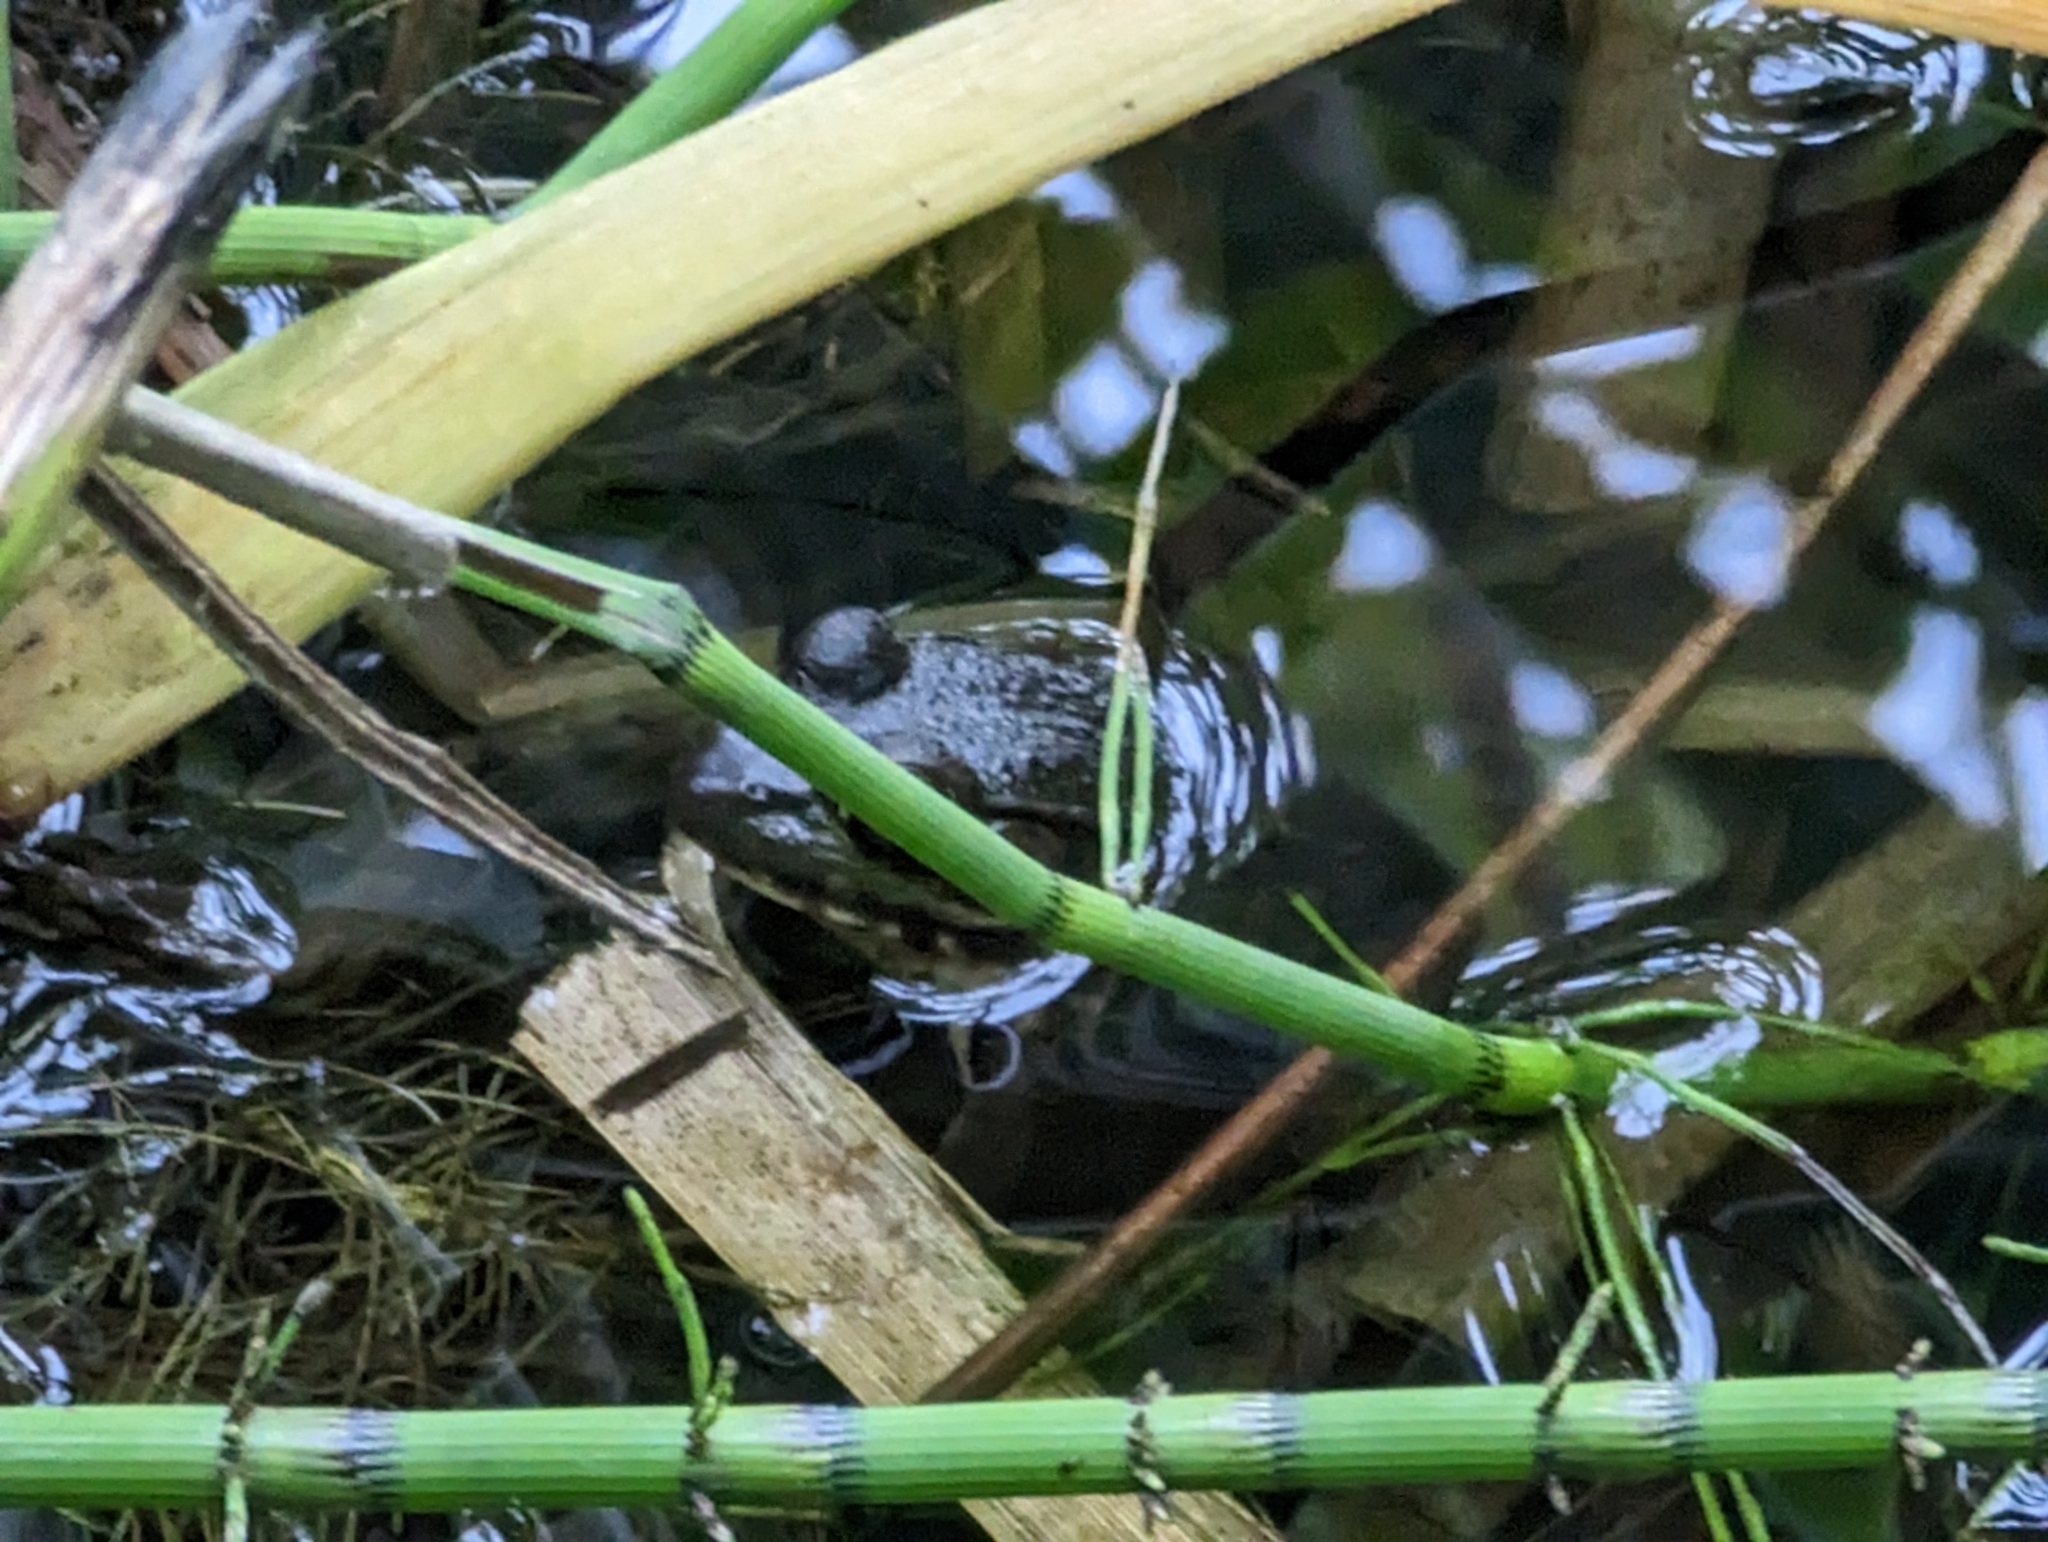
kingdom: Animalia
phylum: Chordata
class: Amphibia
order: Anura
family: Ranidae
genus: Lithobates
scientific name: Lithobates clamitans
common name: Green frog
